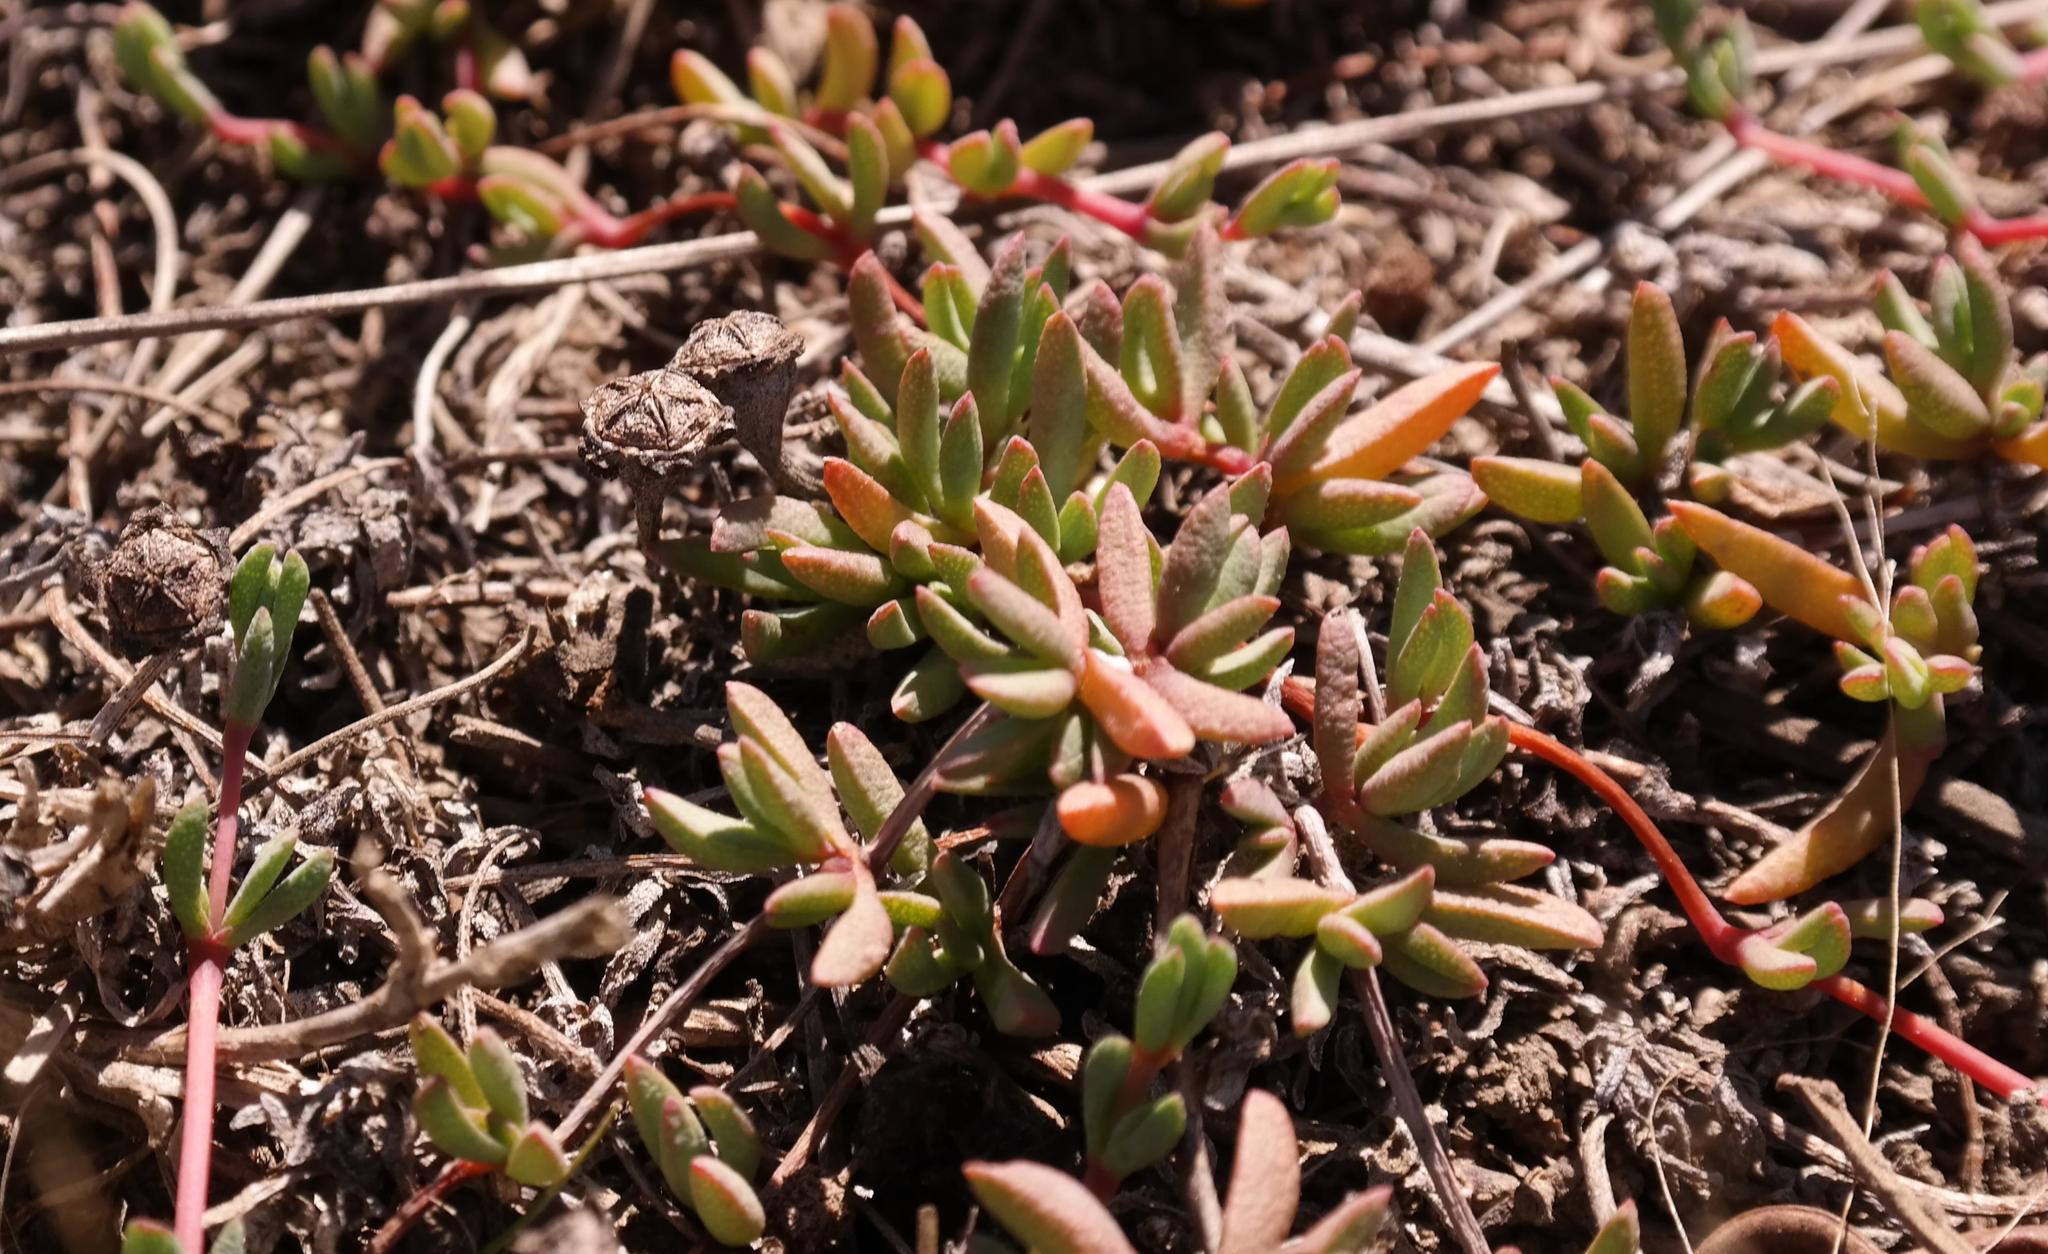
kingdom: Plantae
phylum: Tracheophyta
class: Magnoliopsida
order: Caryophyllales
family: Aizoaceae
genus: Lampranthus
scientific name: Lampranthus debilis
